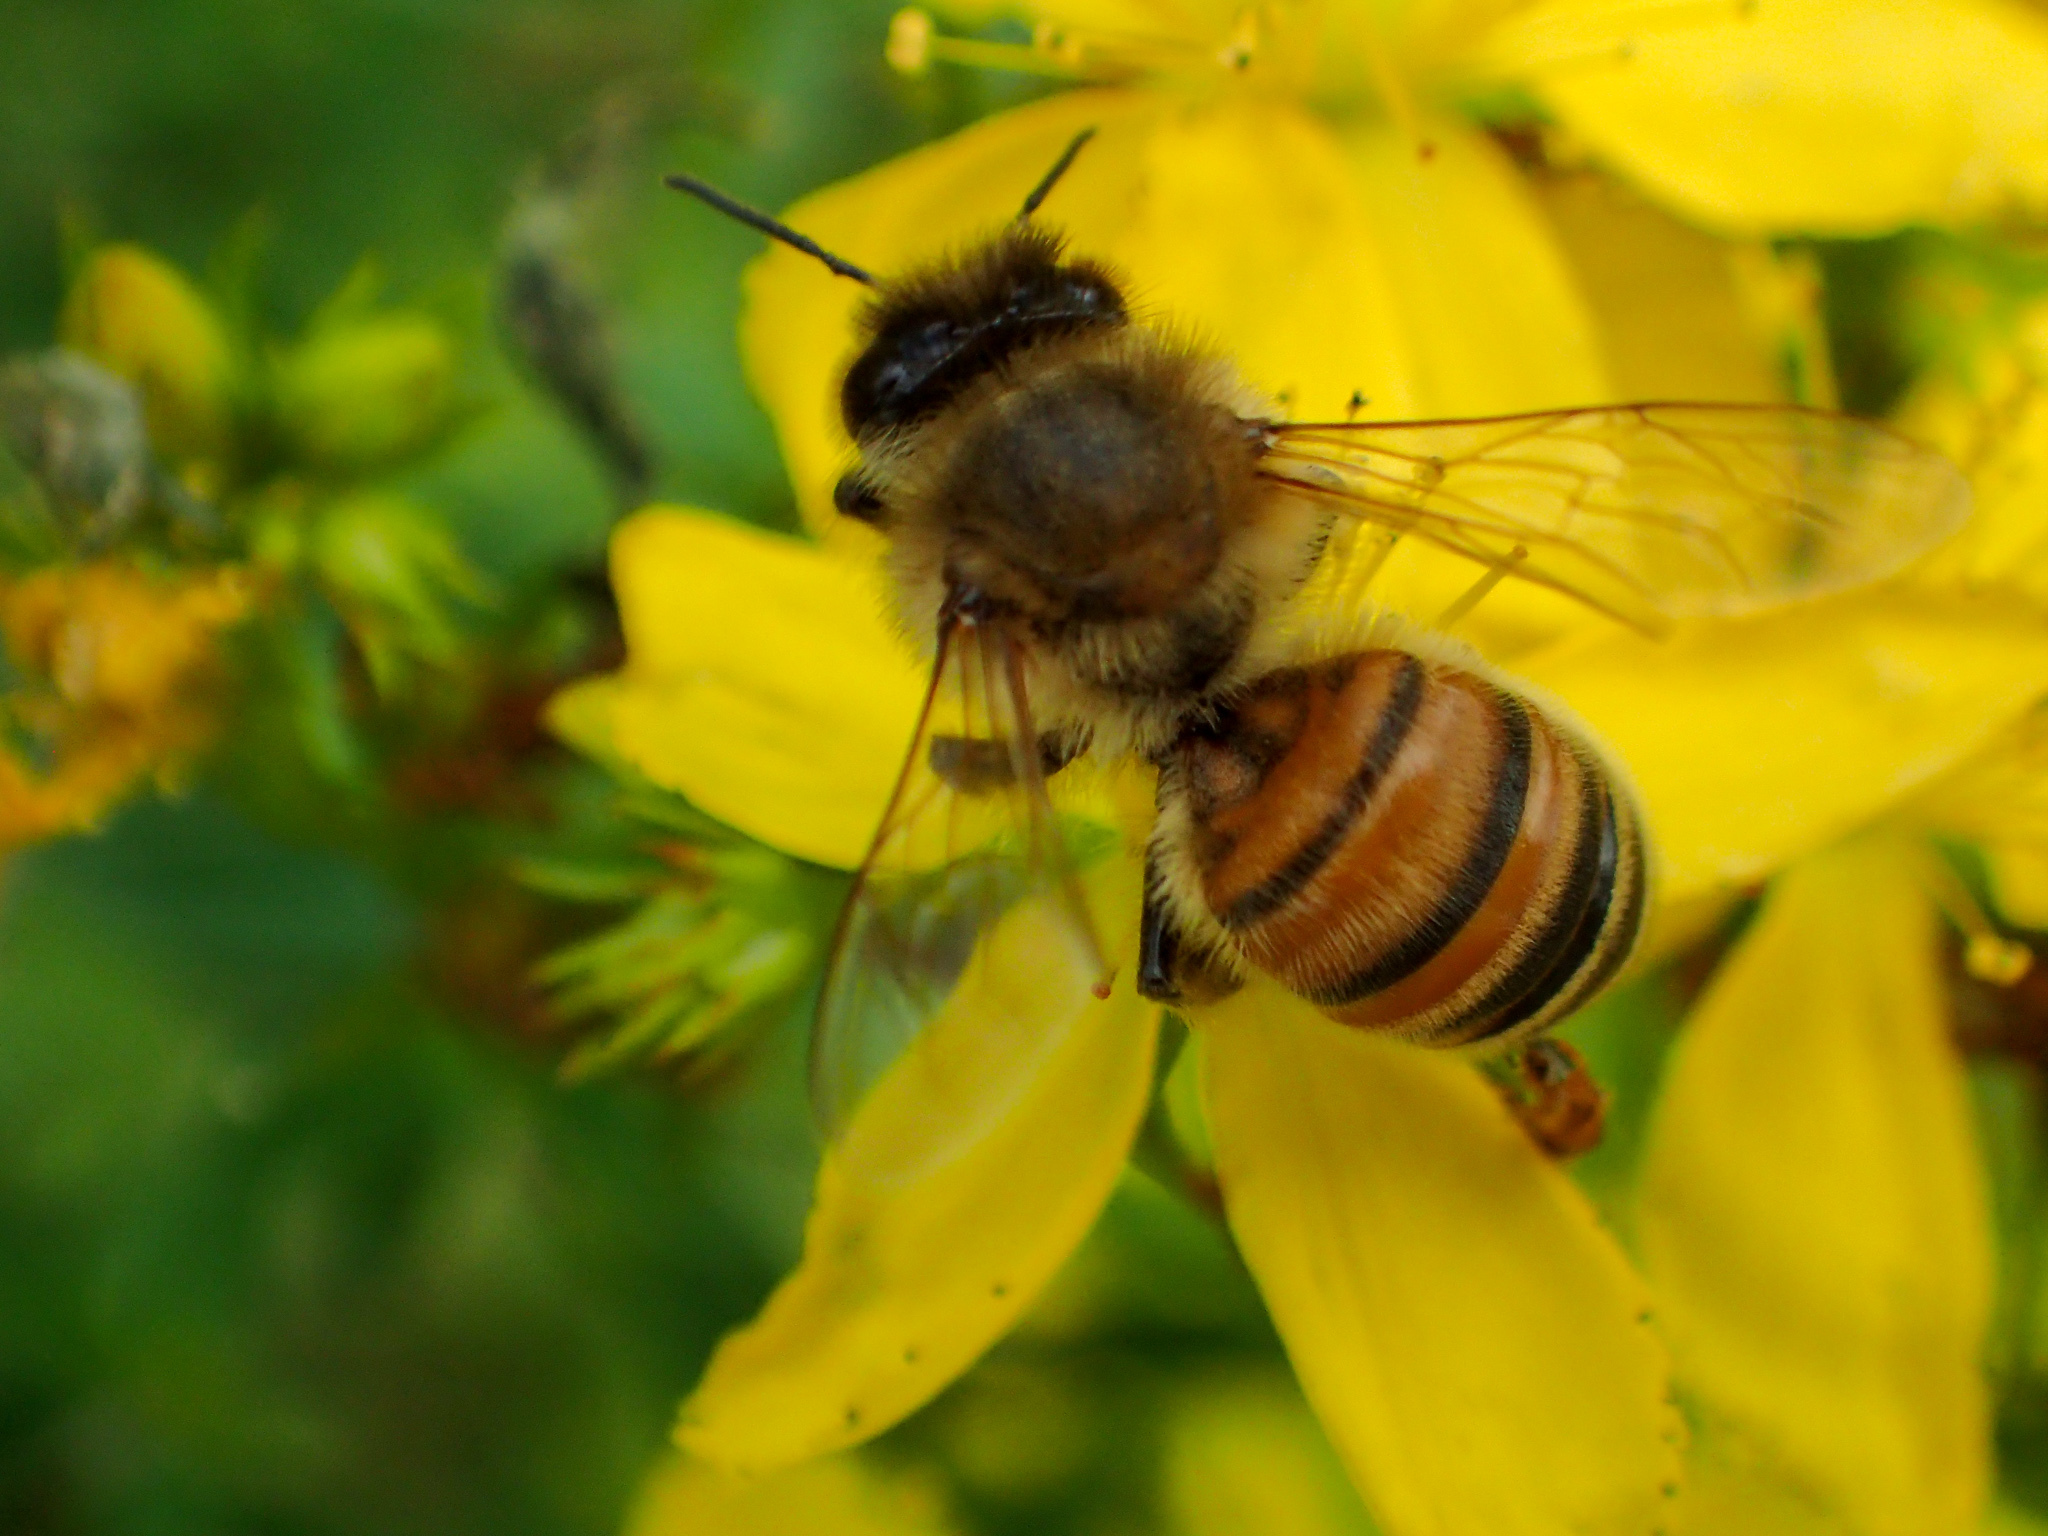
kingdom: Animalia
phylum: Arthropoda
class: Insecta
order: Hymenoptera
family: Apidae
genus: Apis
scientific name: Apis mellifera
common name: Honey bee
